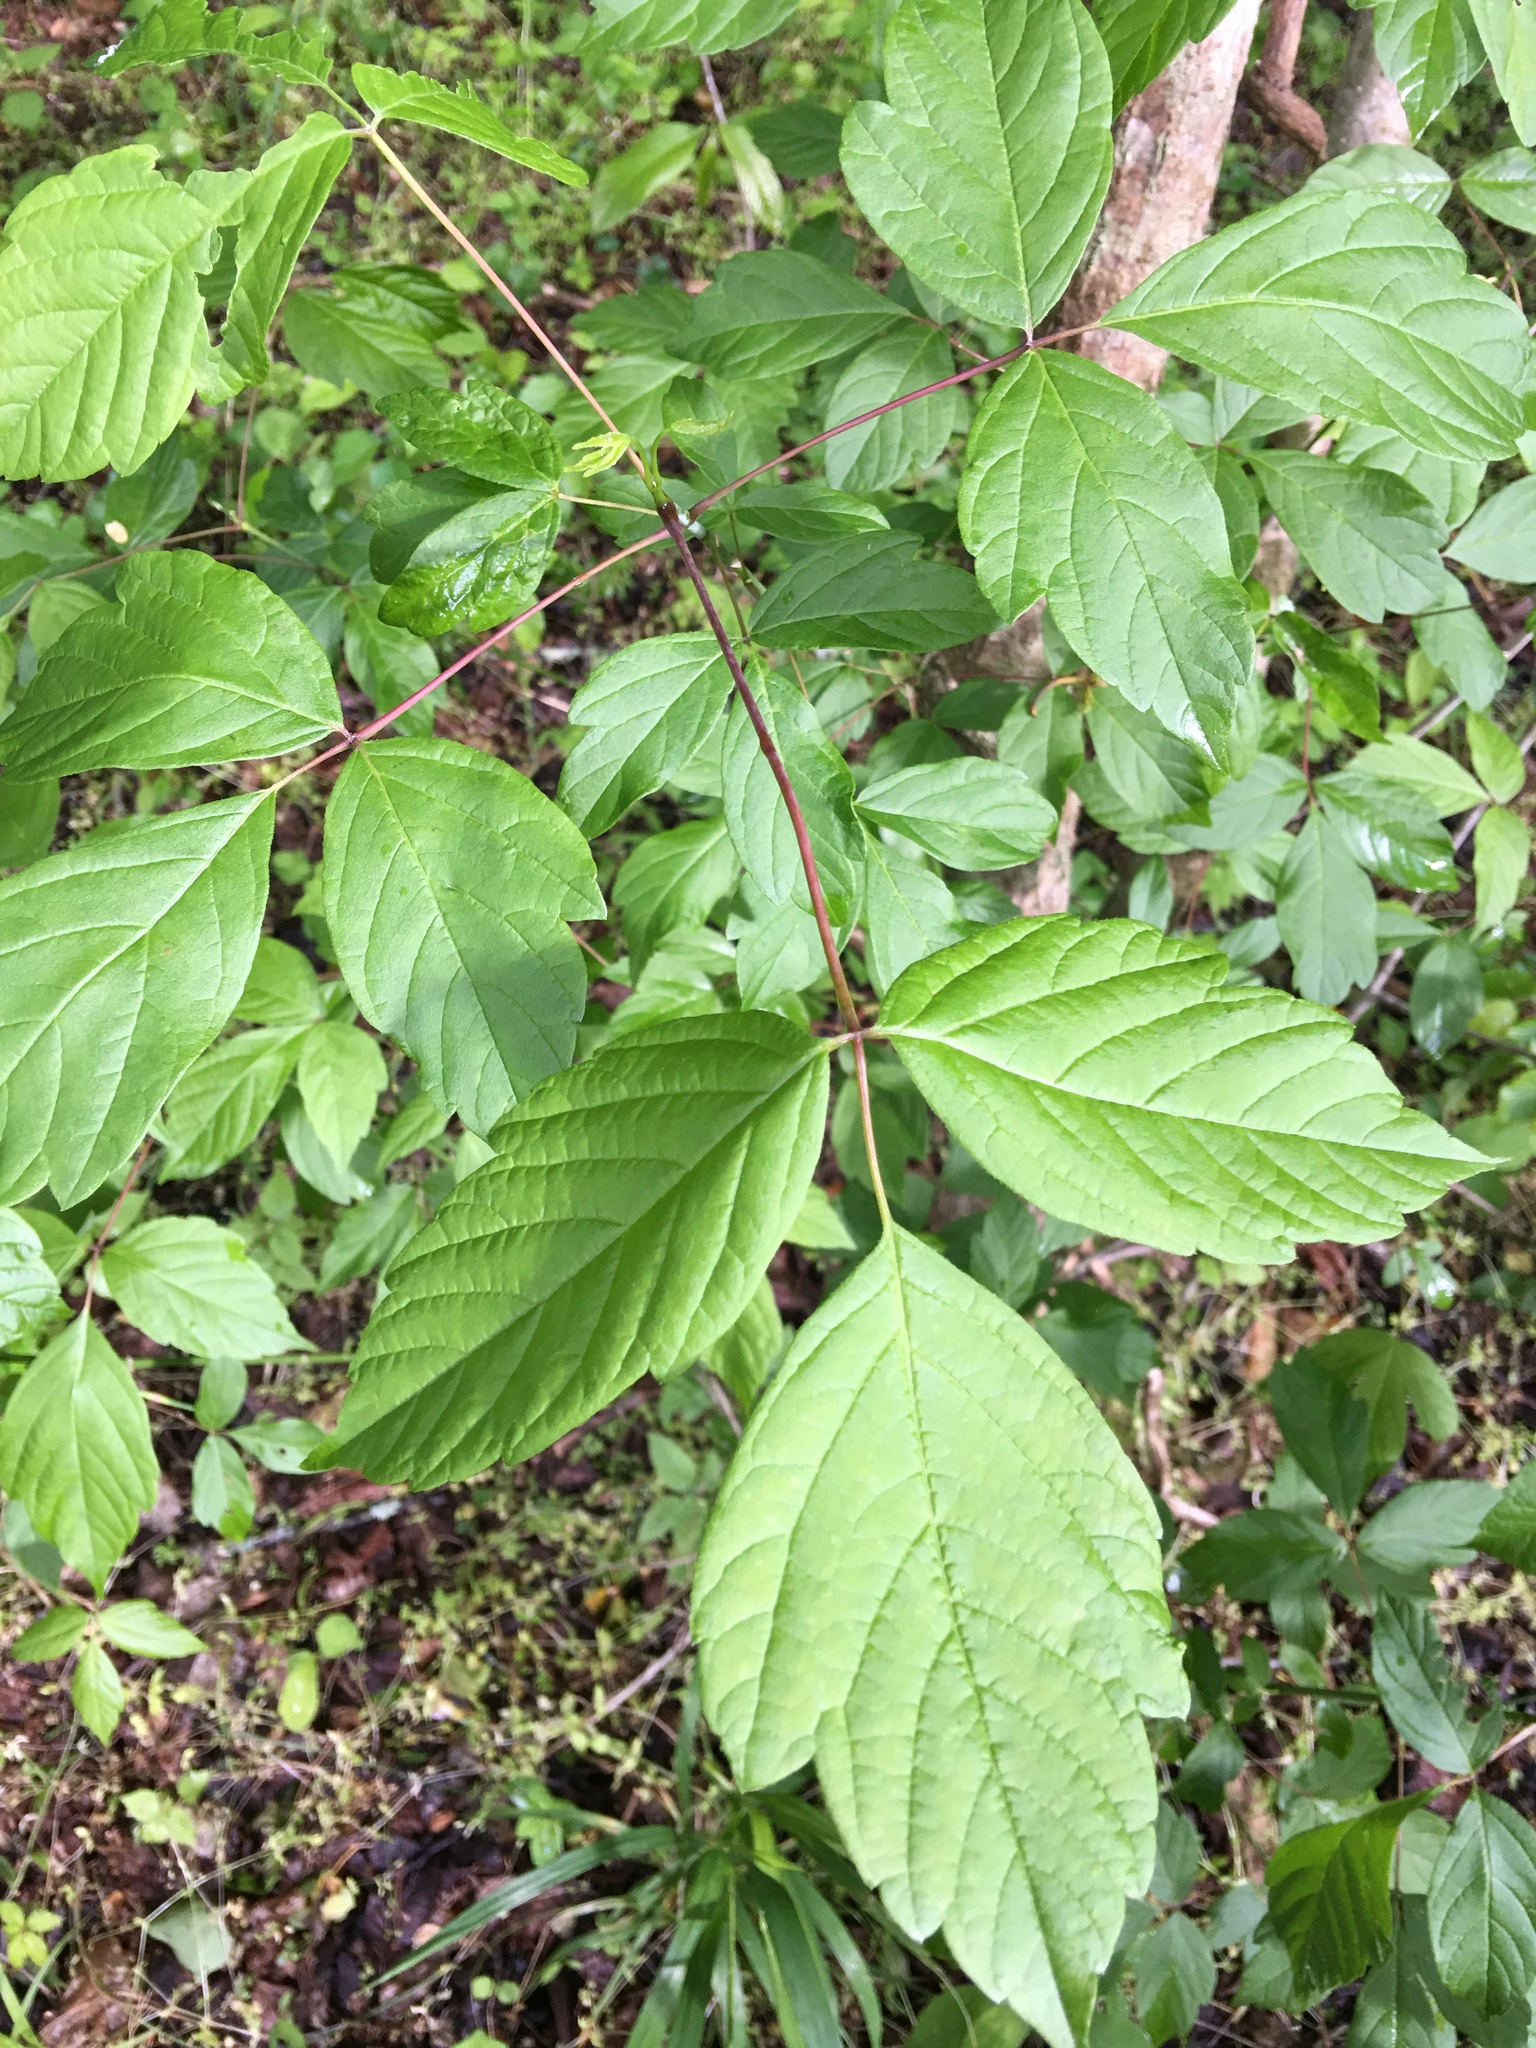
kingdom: Plantae
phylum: Tracheophyta
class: Magnoliopsida
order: Sapindales
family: Sapindaceae
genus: Acer
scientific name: Acer negundo
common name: Ashleaf maple
